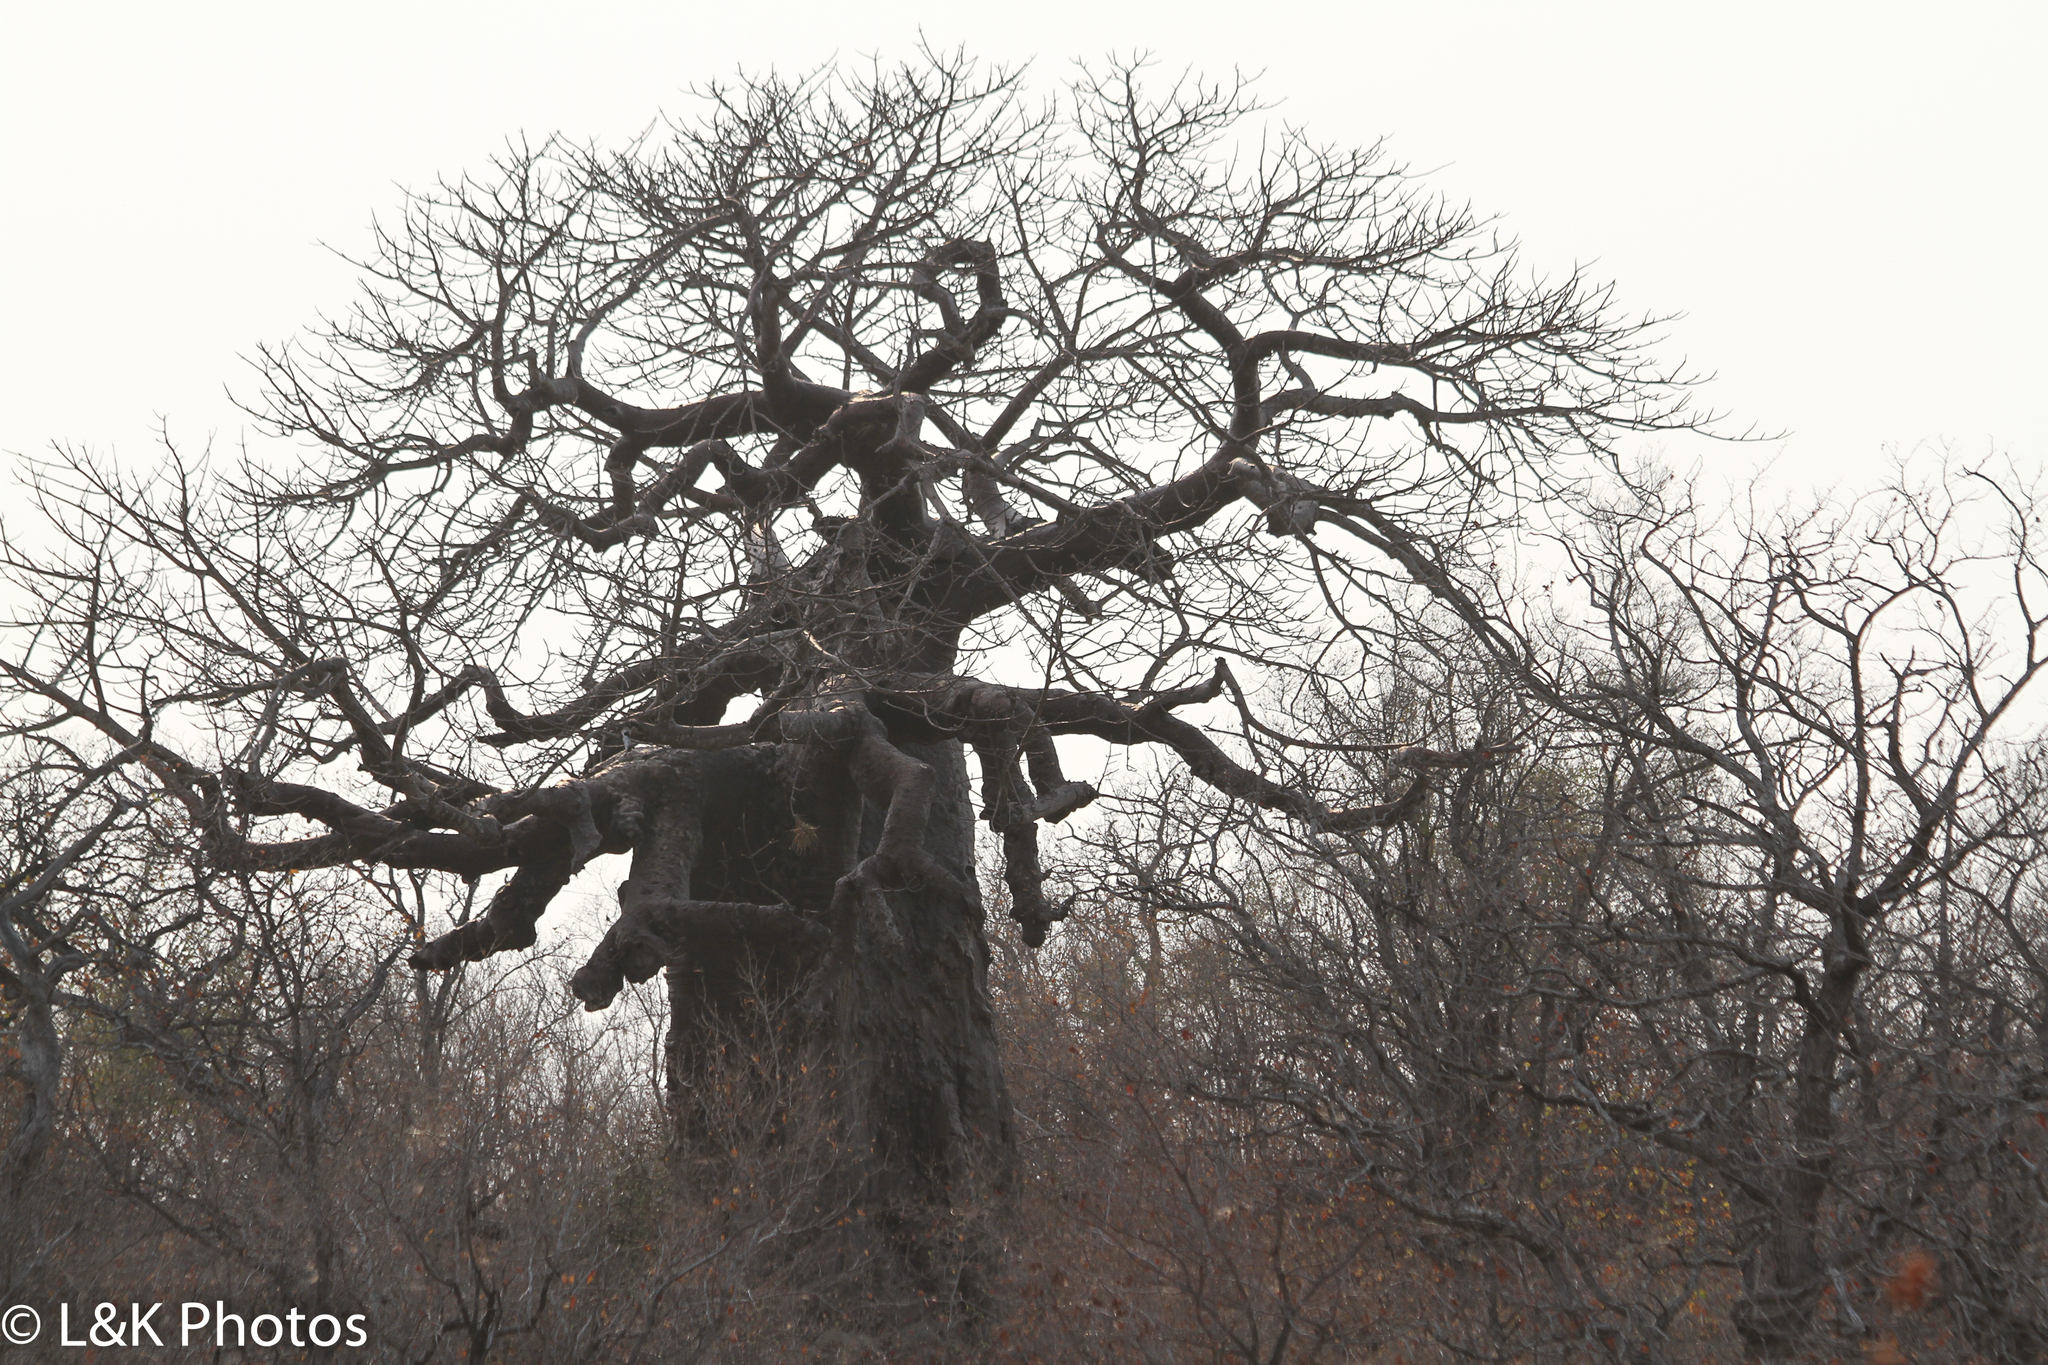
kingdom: Plantae
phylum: Tracheophyta
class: Magnoliopsida
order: Malvales
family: Malvaceae
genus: Adansonia
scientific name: Adansonia digitata
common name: Dead-rat-tree
